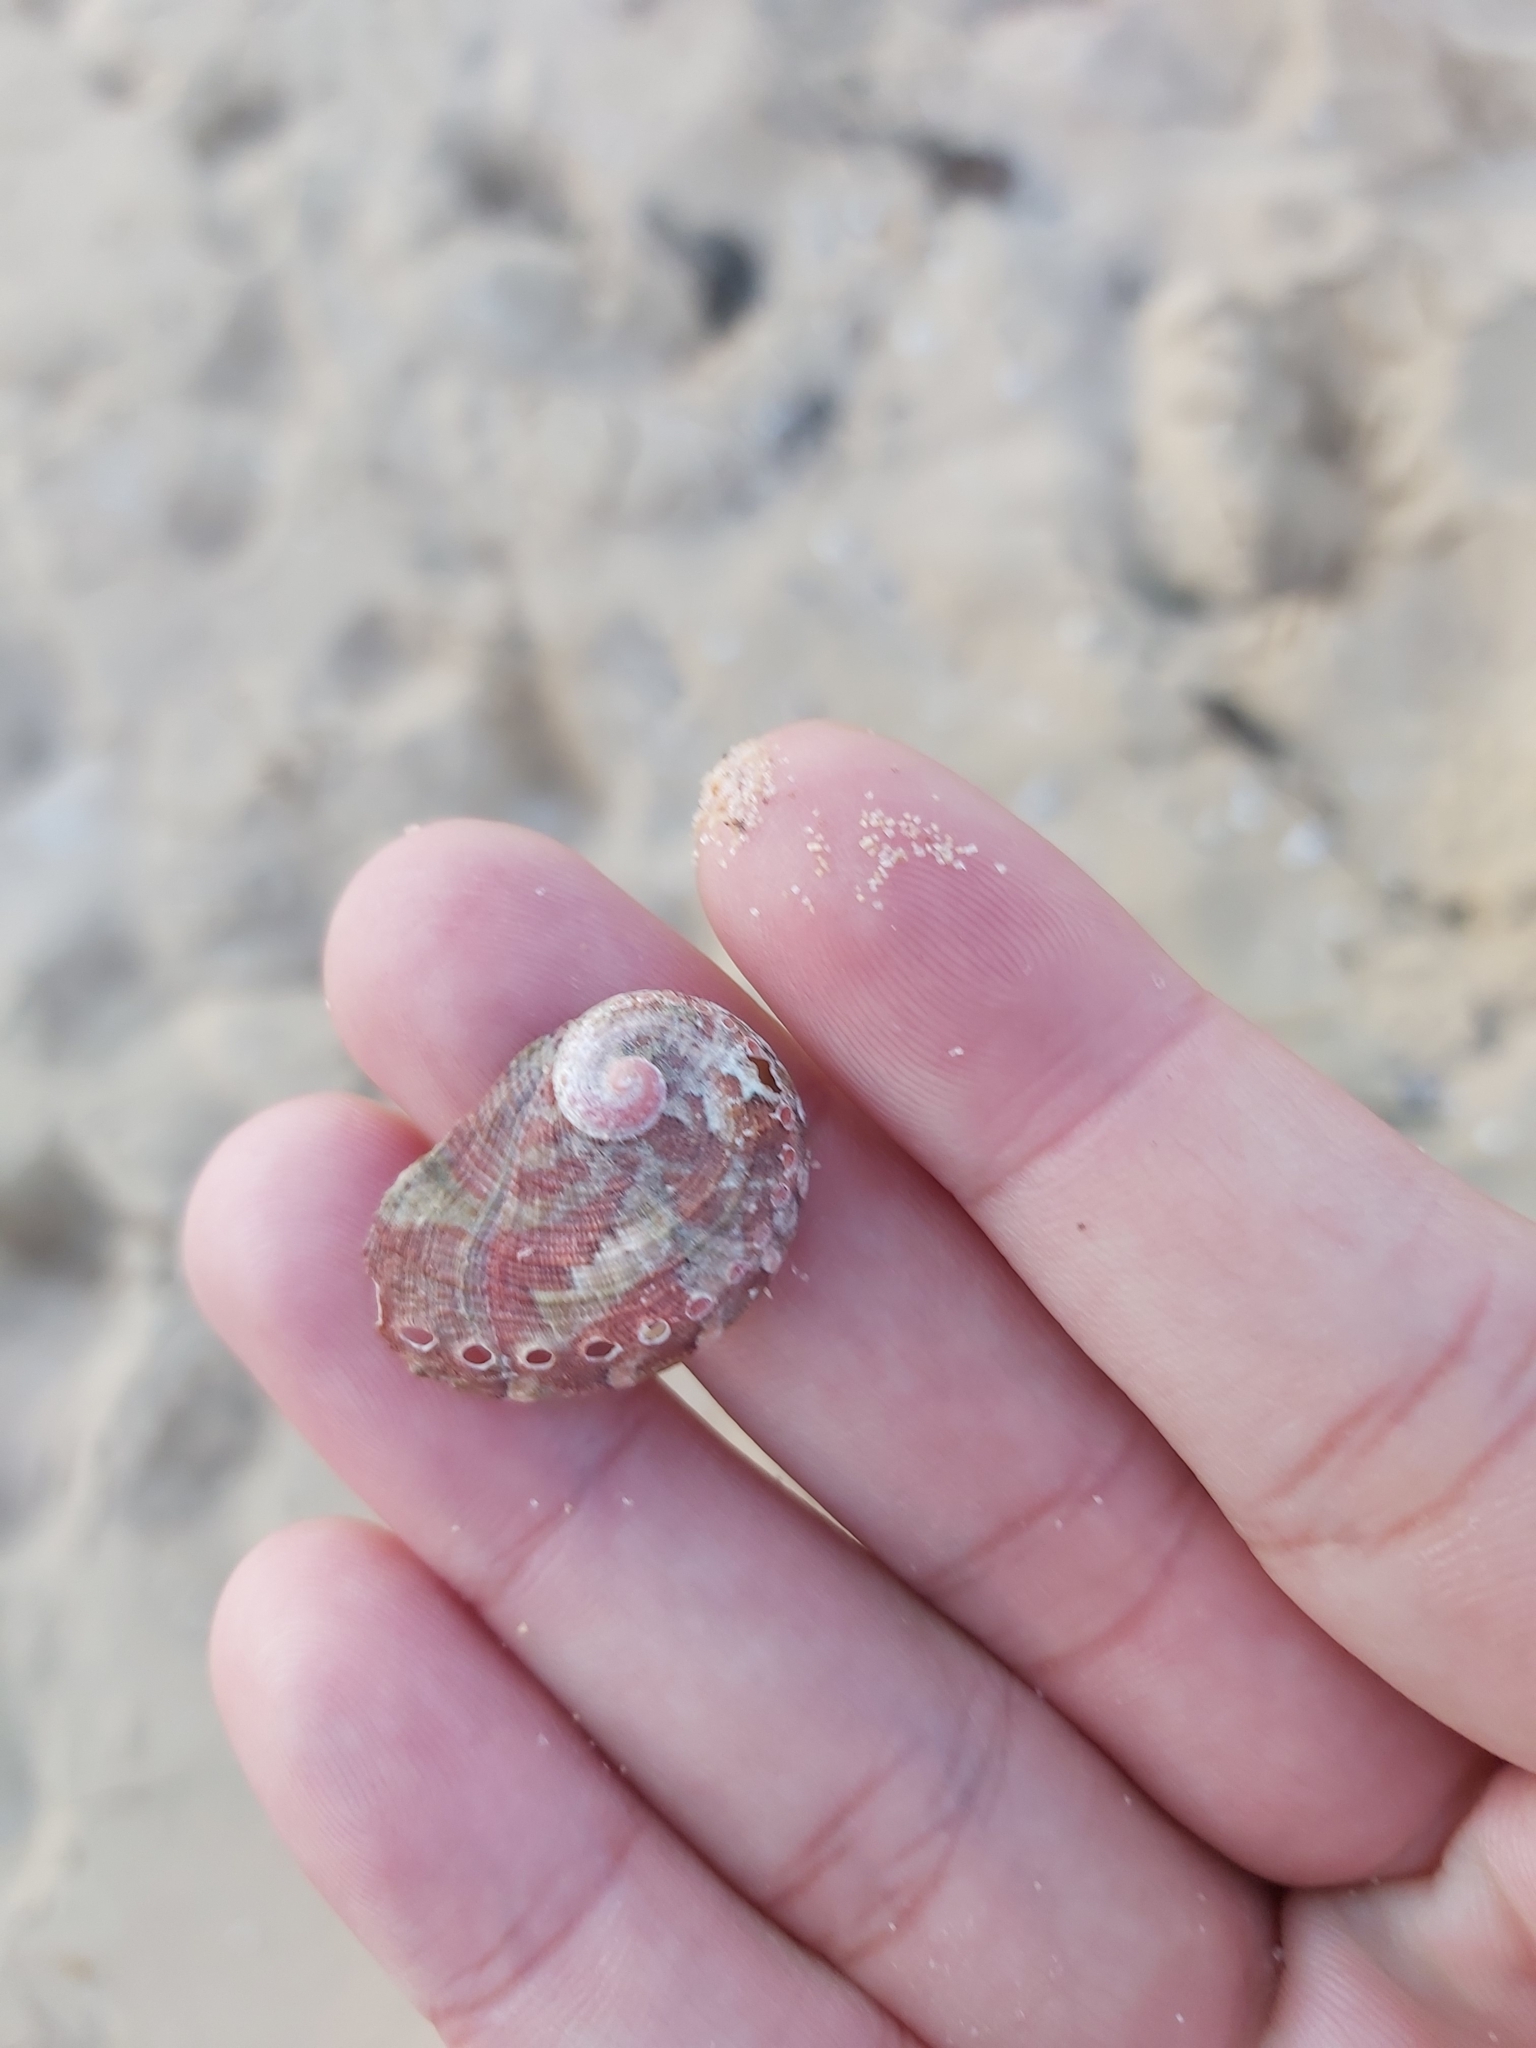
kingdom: Animalia
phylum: Mollusca
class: Gastropoda
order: Lepetellida
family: Haliotidae
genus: Haliotis
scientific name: Haliotis coccoradiata
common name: Reddish-rayed abalone
